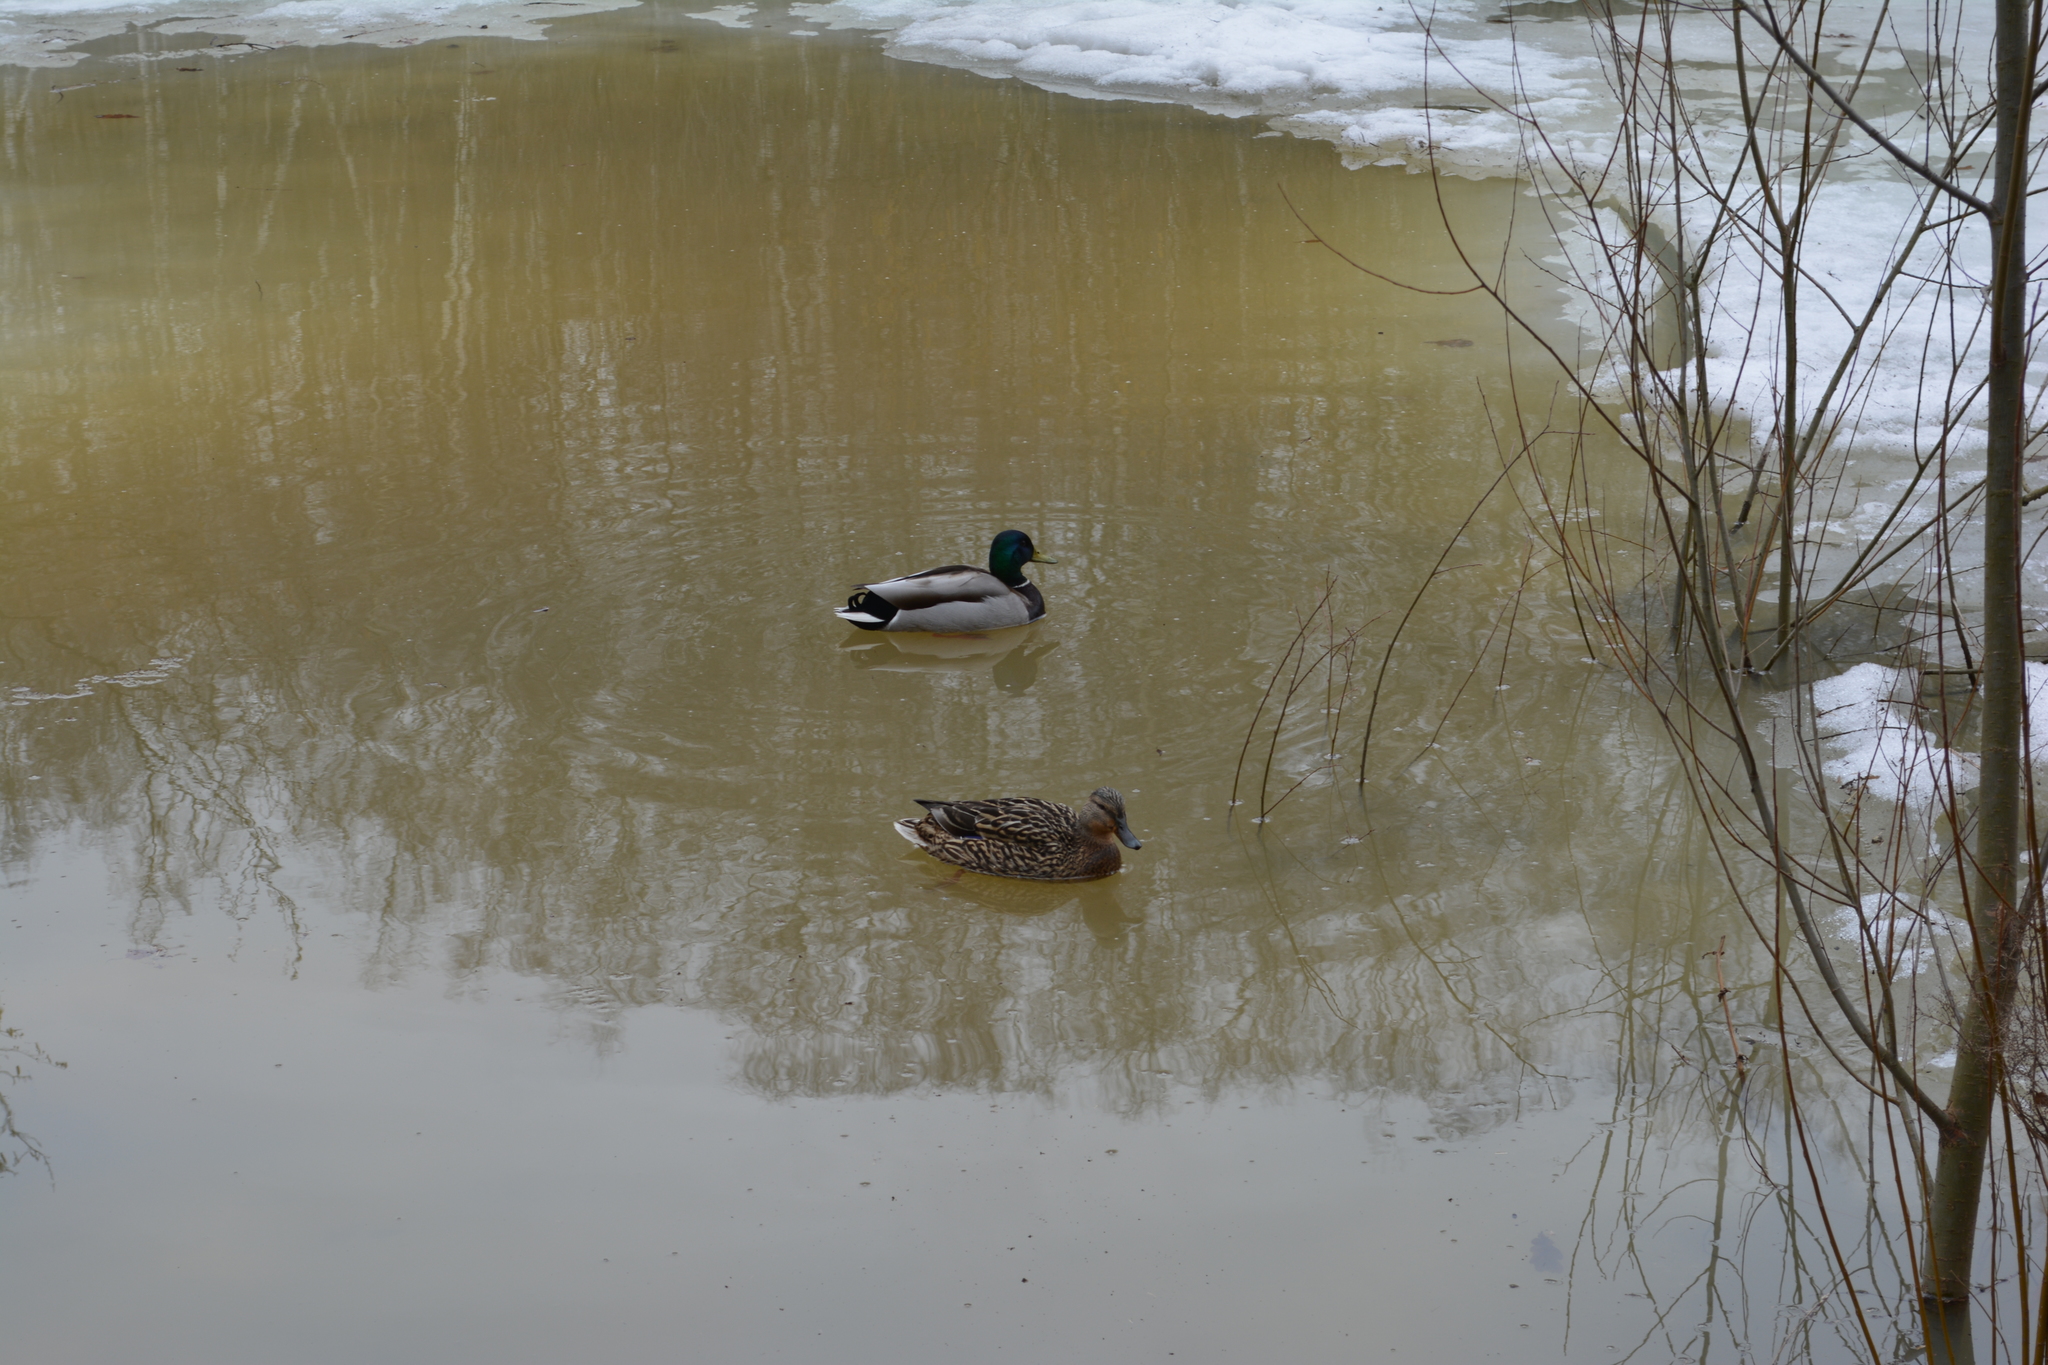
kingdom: Animalia
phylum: Chordata
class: Aves
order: Anseriformes
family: Anatidae
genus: Anas
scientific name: Anas platyrhynchos
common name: Mallard
